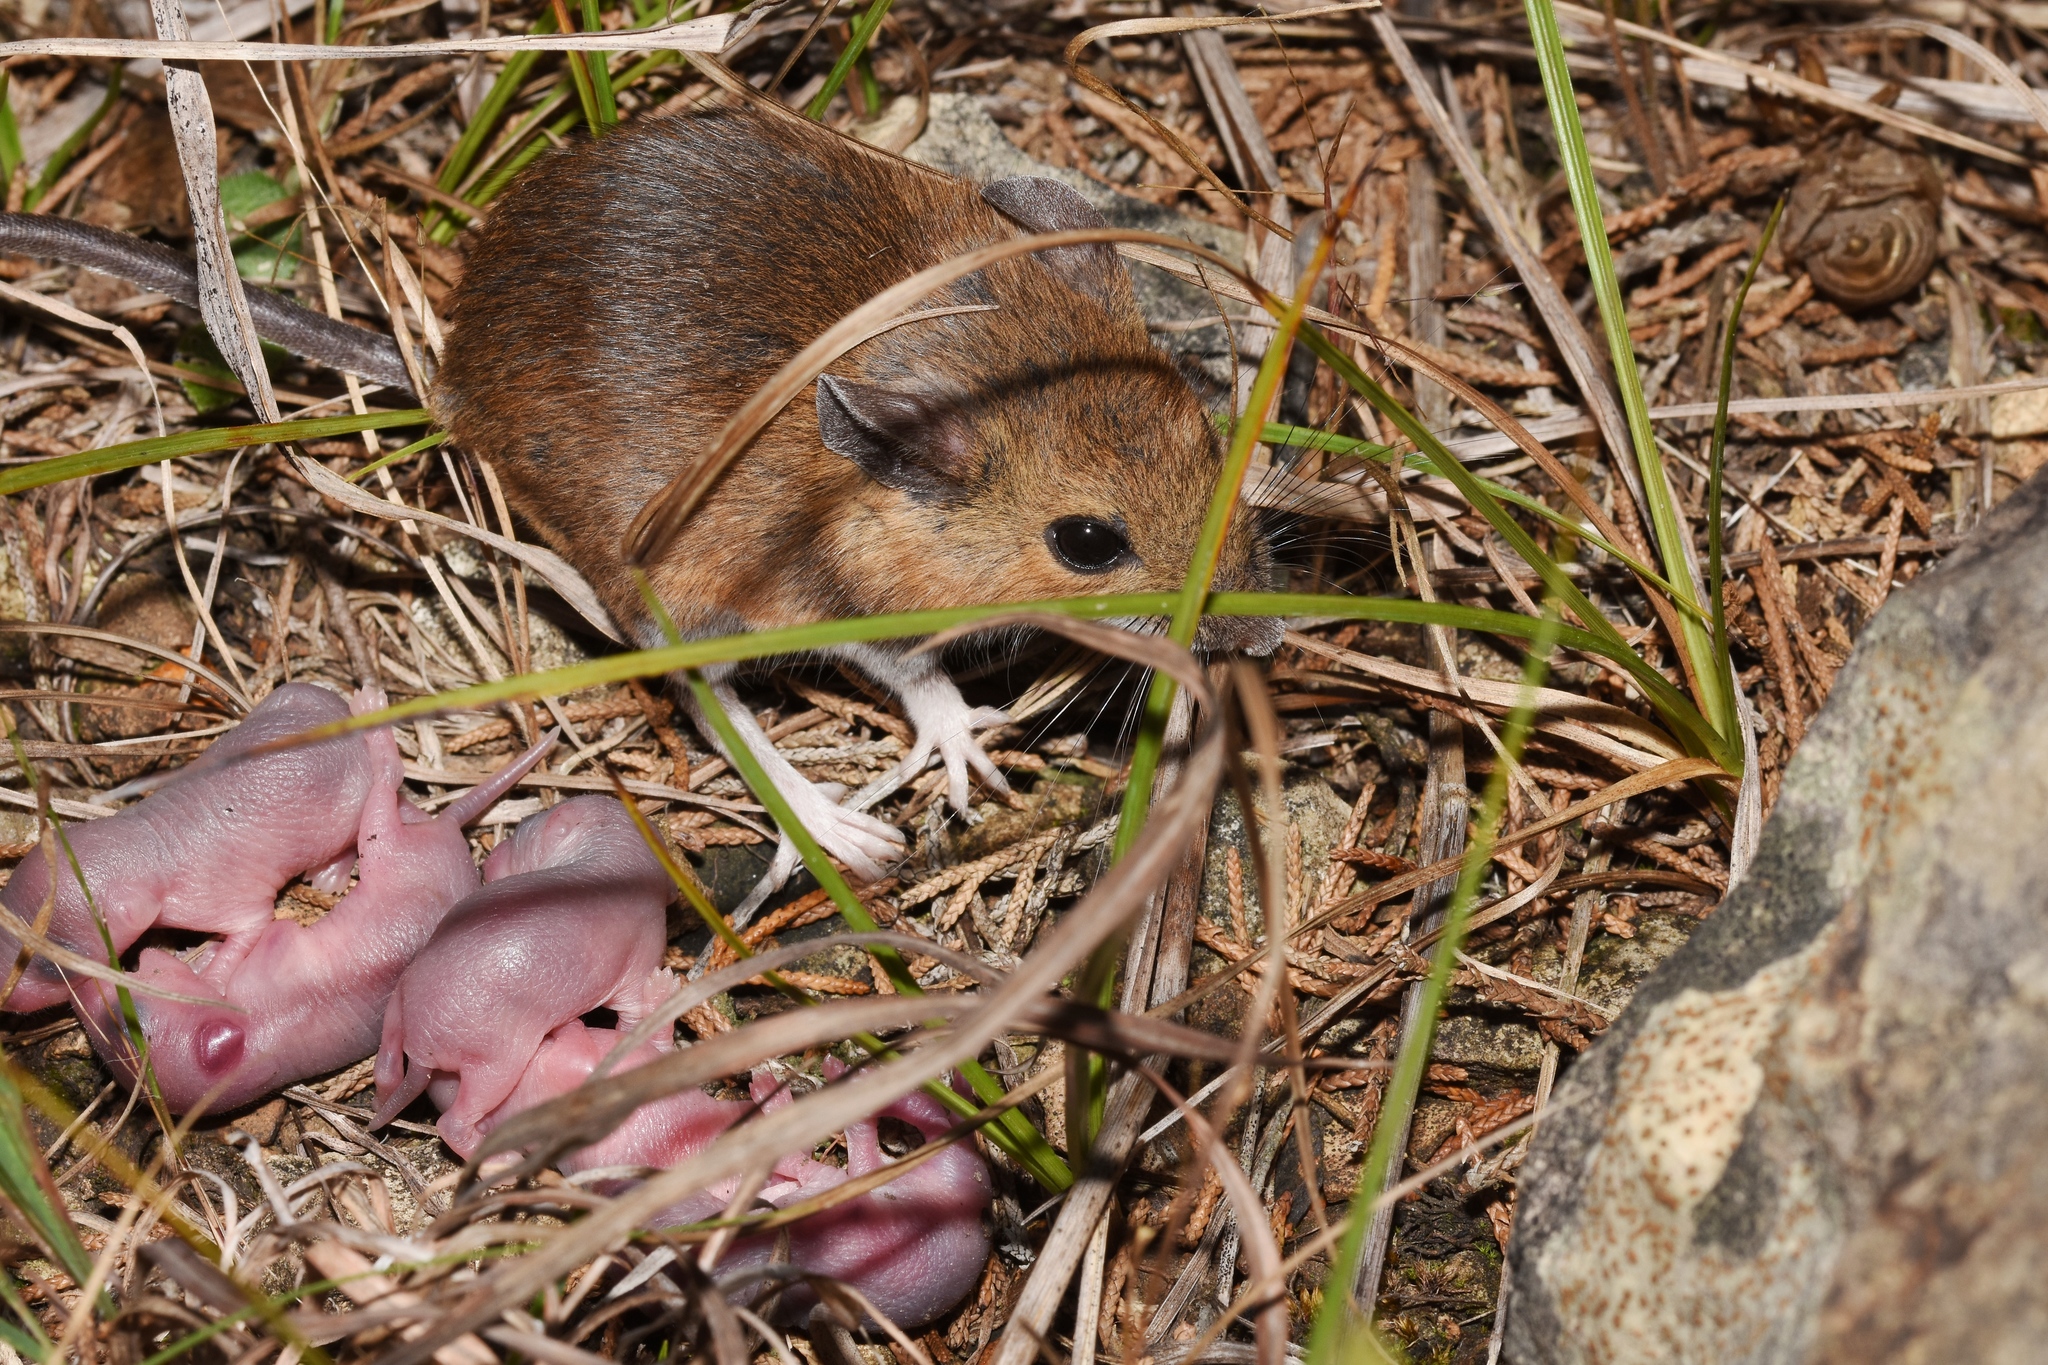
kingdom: Animalia
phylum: Chordata
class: Mammalia
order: Rodentia
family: Cricetidae
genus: Peromyscus
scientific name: Peromyscus leucopus
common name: White-footed deermouse
